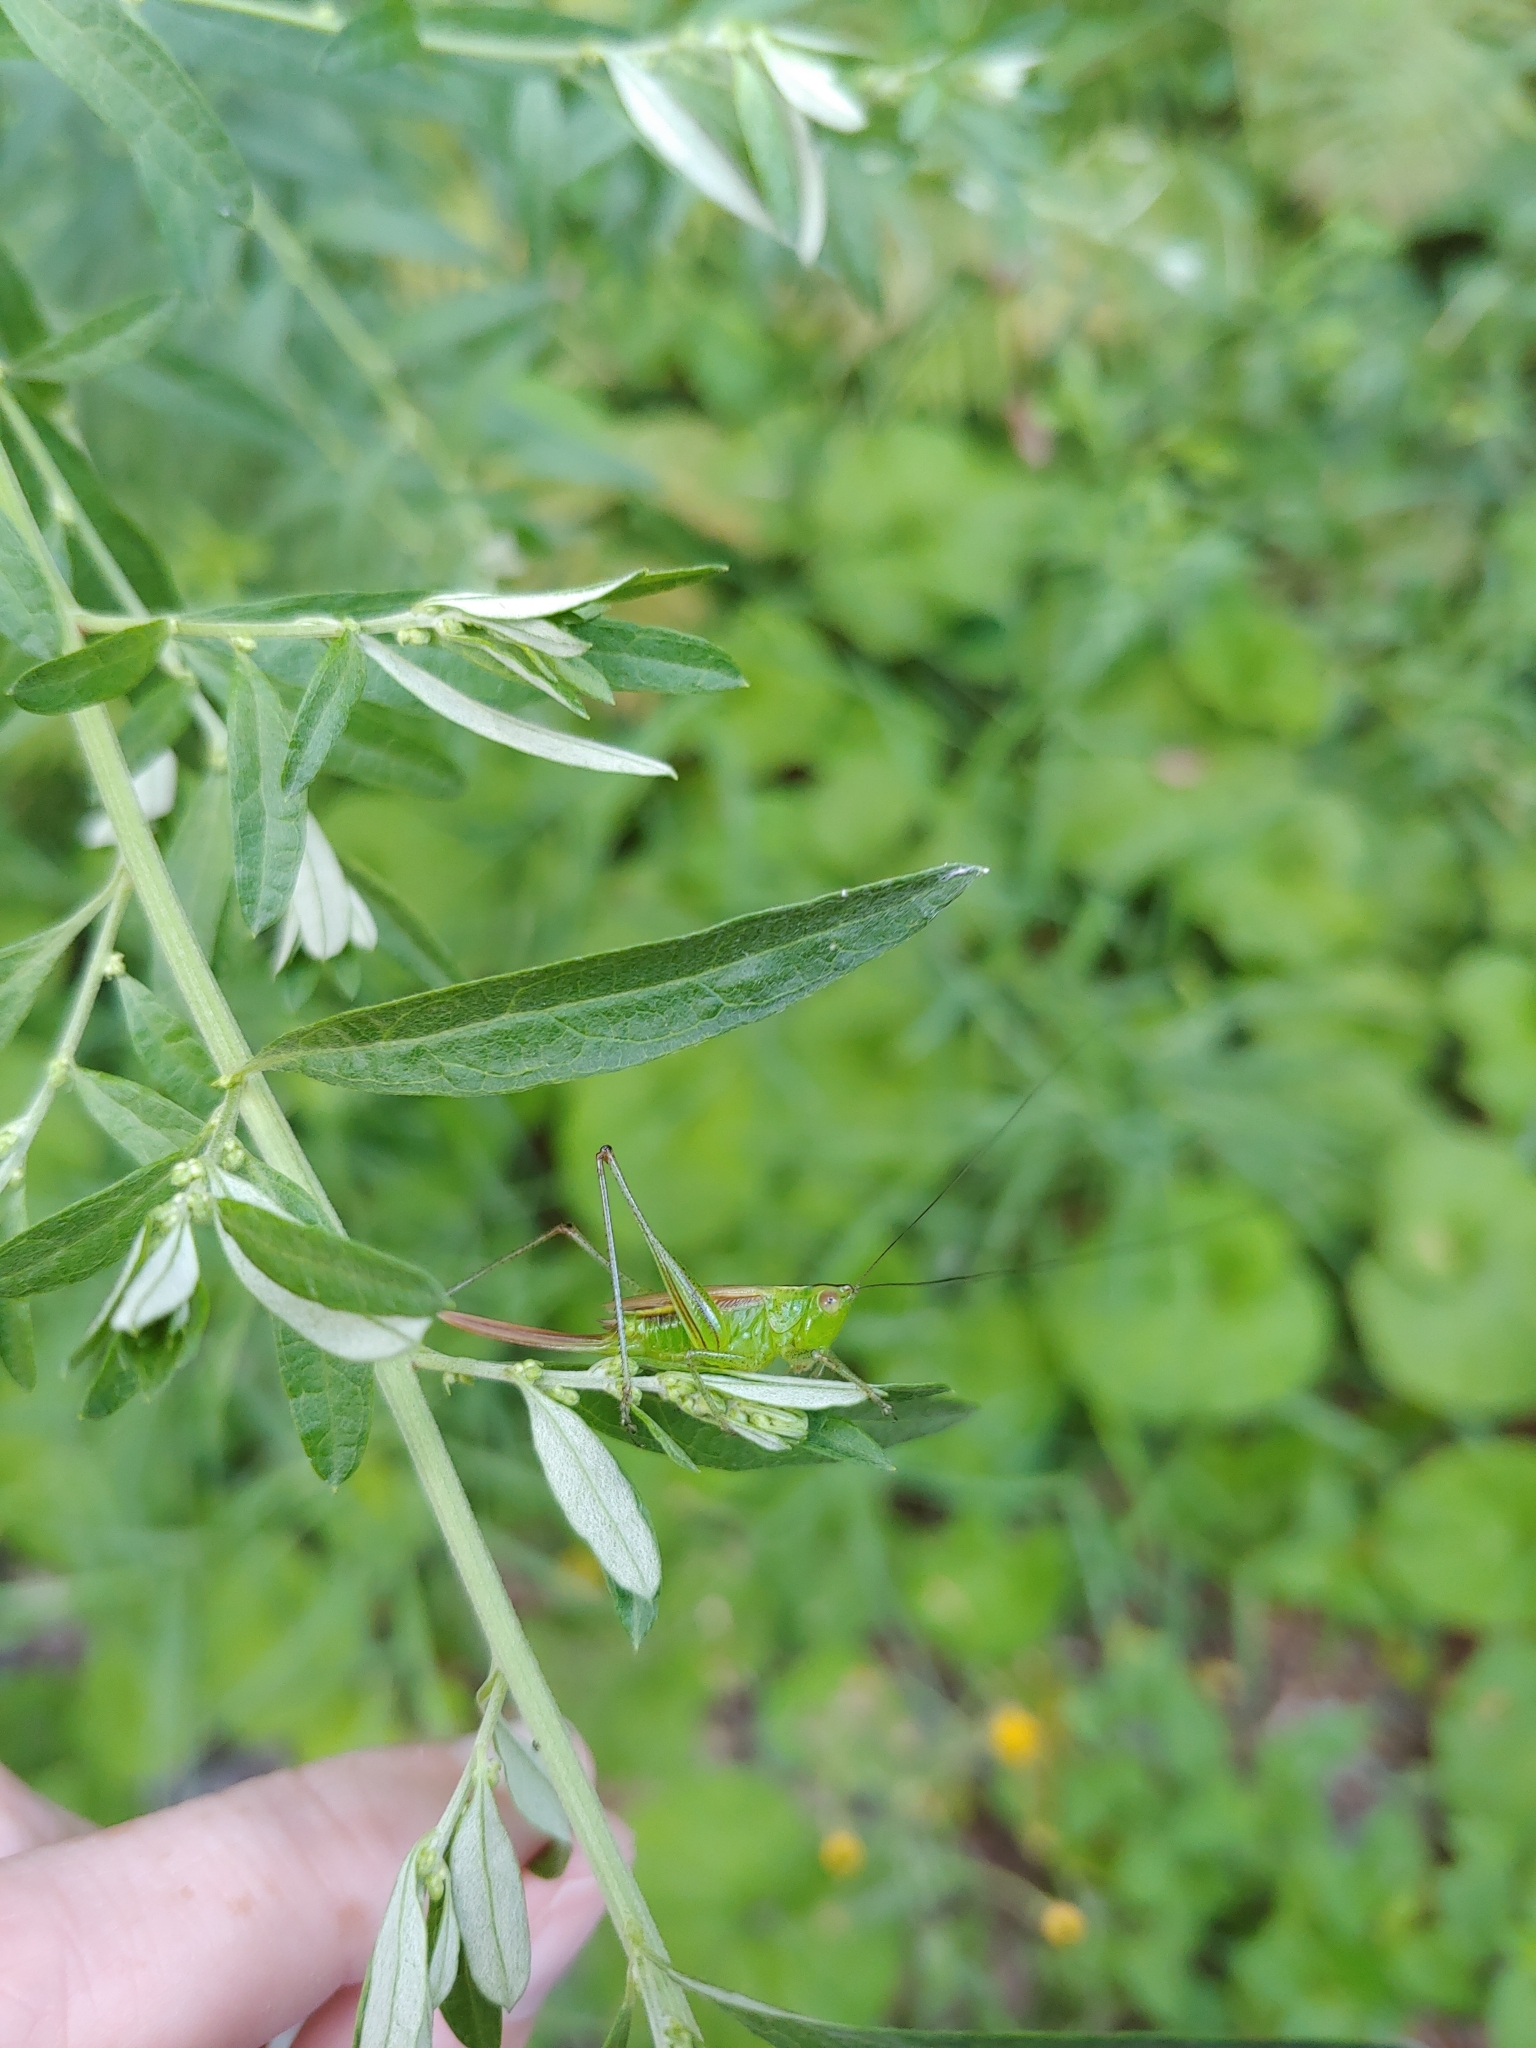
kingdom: Animalia
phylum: Arthropoda
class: Insecta
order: Orthoptera
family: Tettigoniidae
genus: Conocephalus
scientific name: Conocephalus brevipennis
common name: Short-winged meadow katydid
